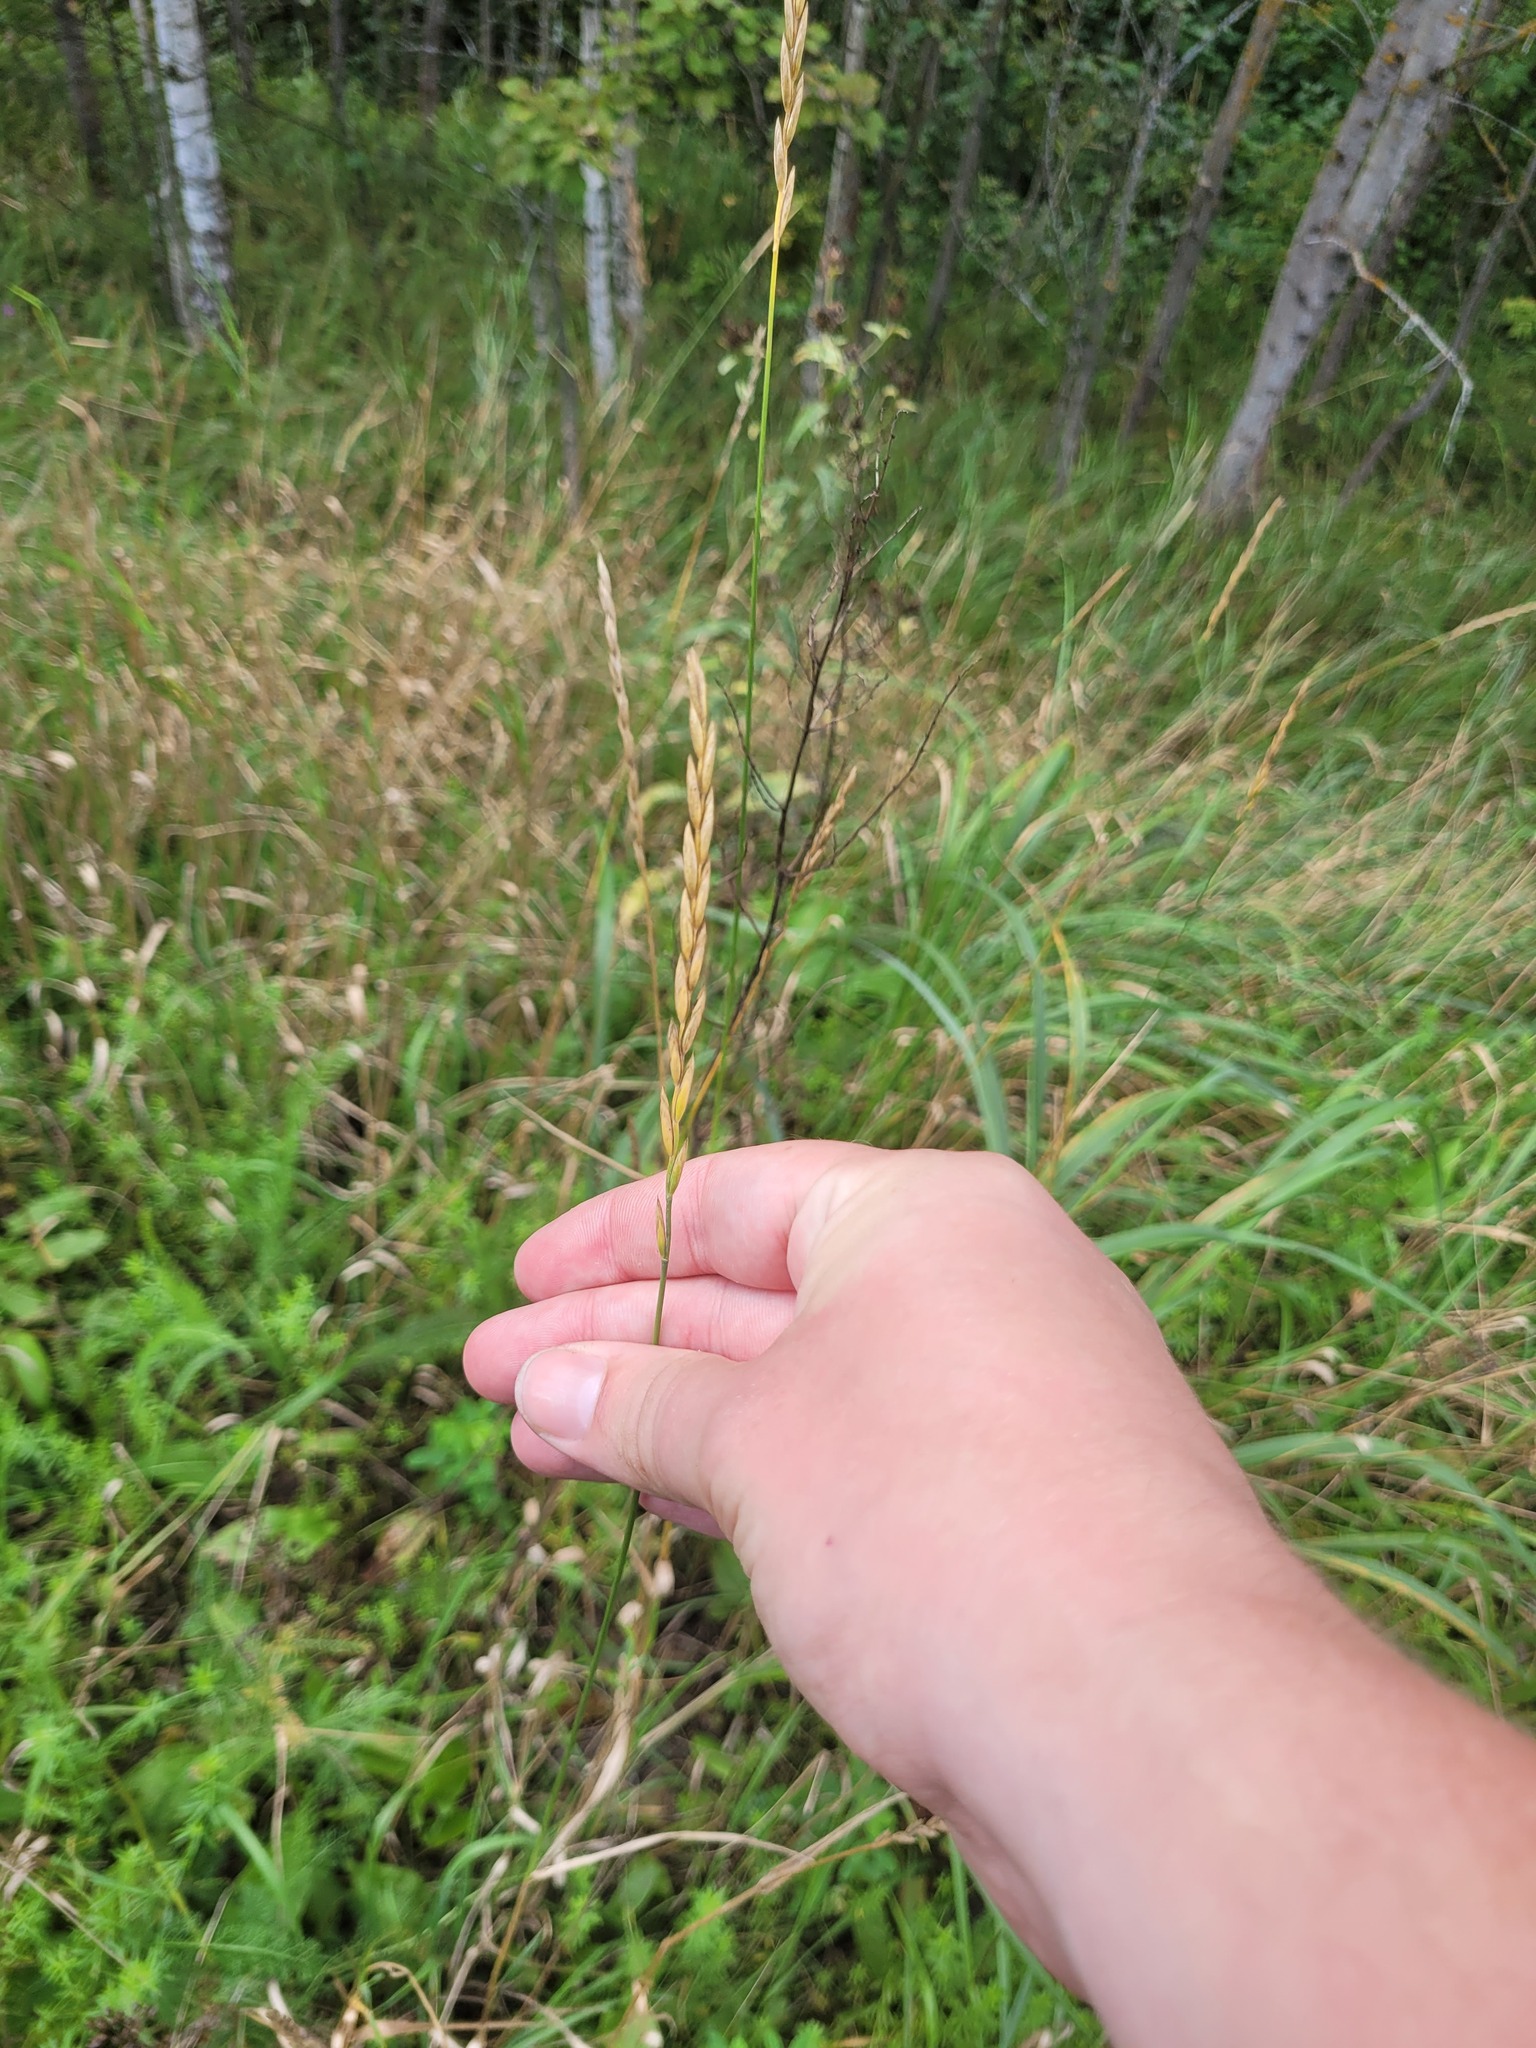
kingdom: Plantae
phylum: Tracheophyta
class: Liliopsida
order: Poales
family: Poaceae
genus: Elymus
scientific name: Elymus repens
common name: Quackgrass
